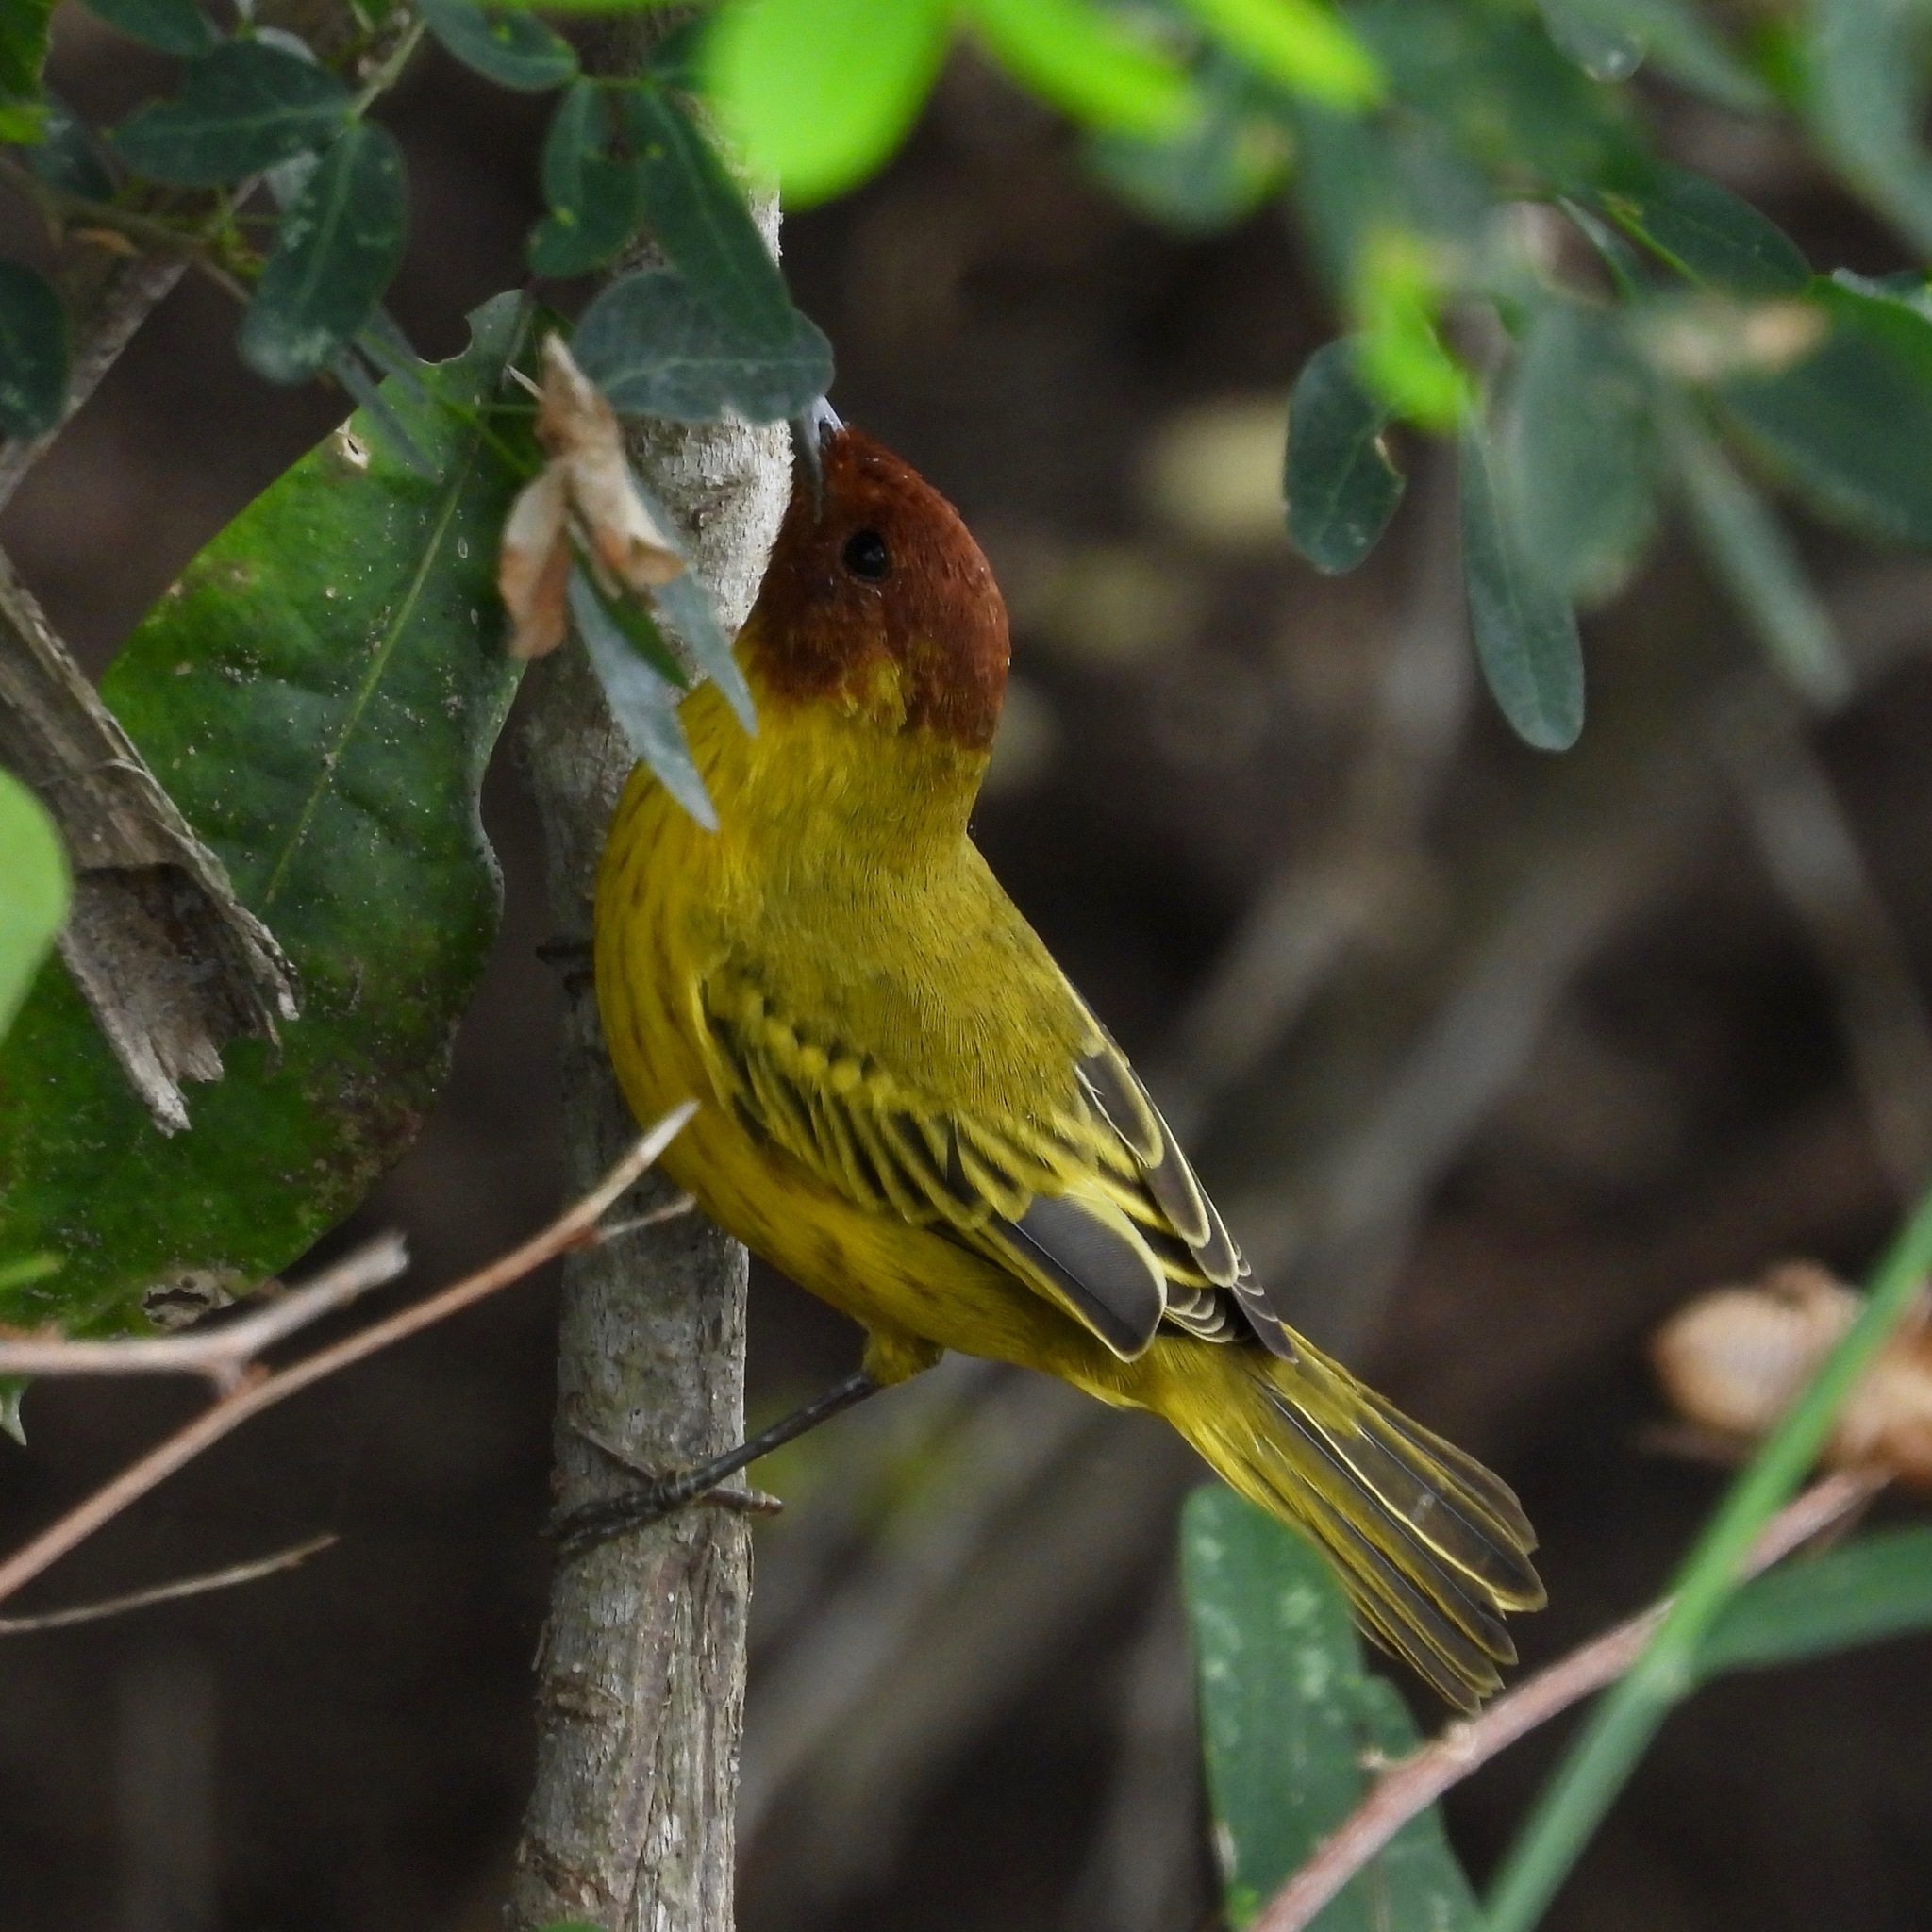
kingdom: Animalia
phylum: Chordata
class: Aves
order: Passeriformes
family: Parulidae
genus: Setophaga
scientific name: Setophaga petechia
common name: Yellow warbler
